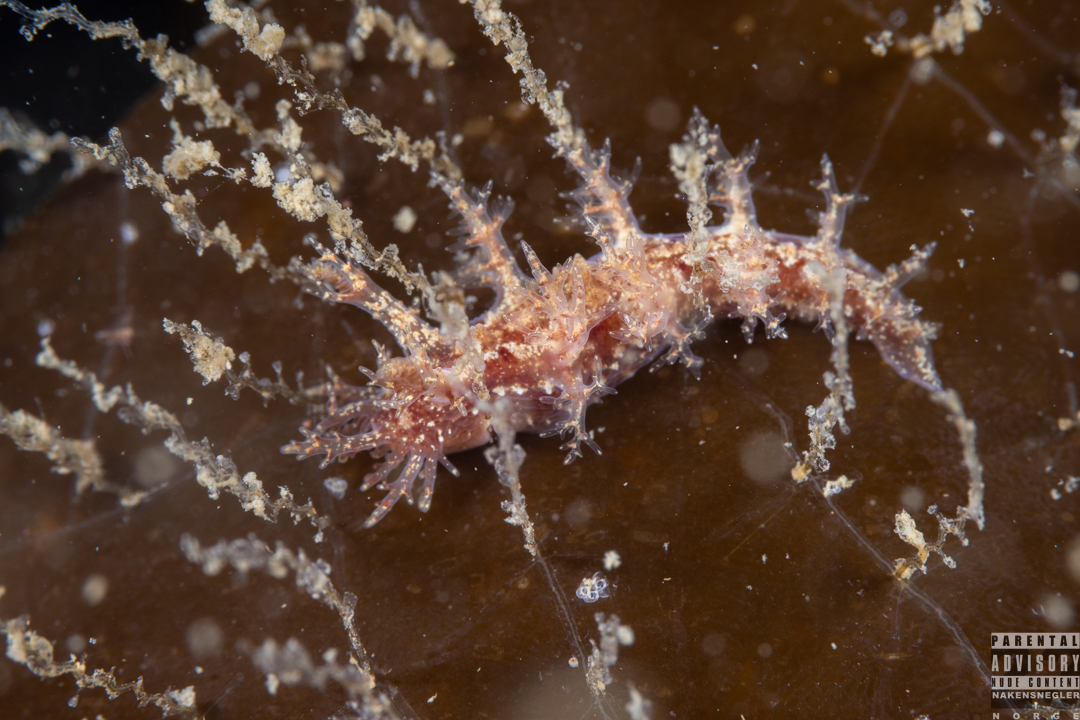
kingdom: Animalia
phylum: Mollusca
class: Gastropoda
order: Nudibranchia
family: Dendronotidae
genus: Dendronotus
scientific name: Dendronotus frondosus
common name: Bushy-backed nudibranch
